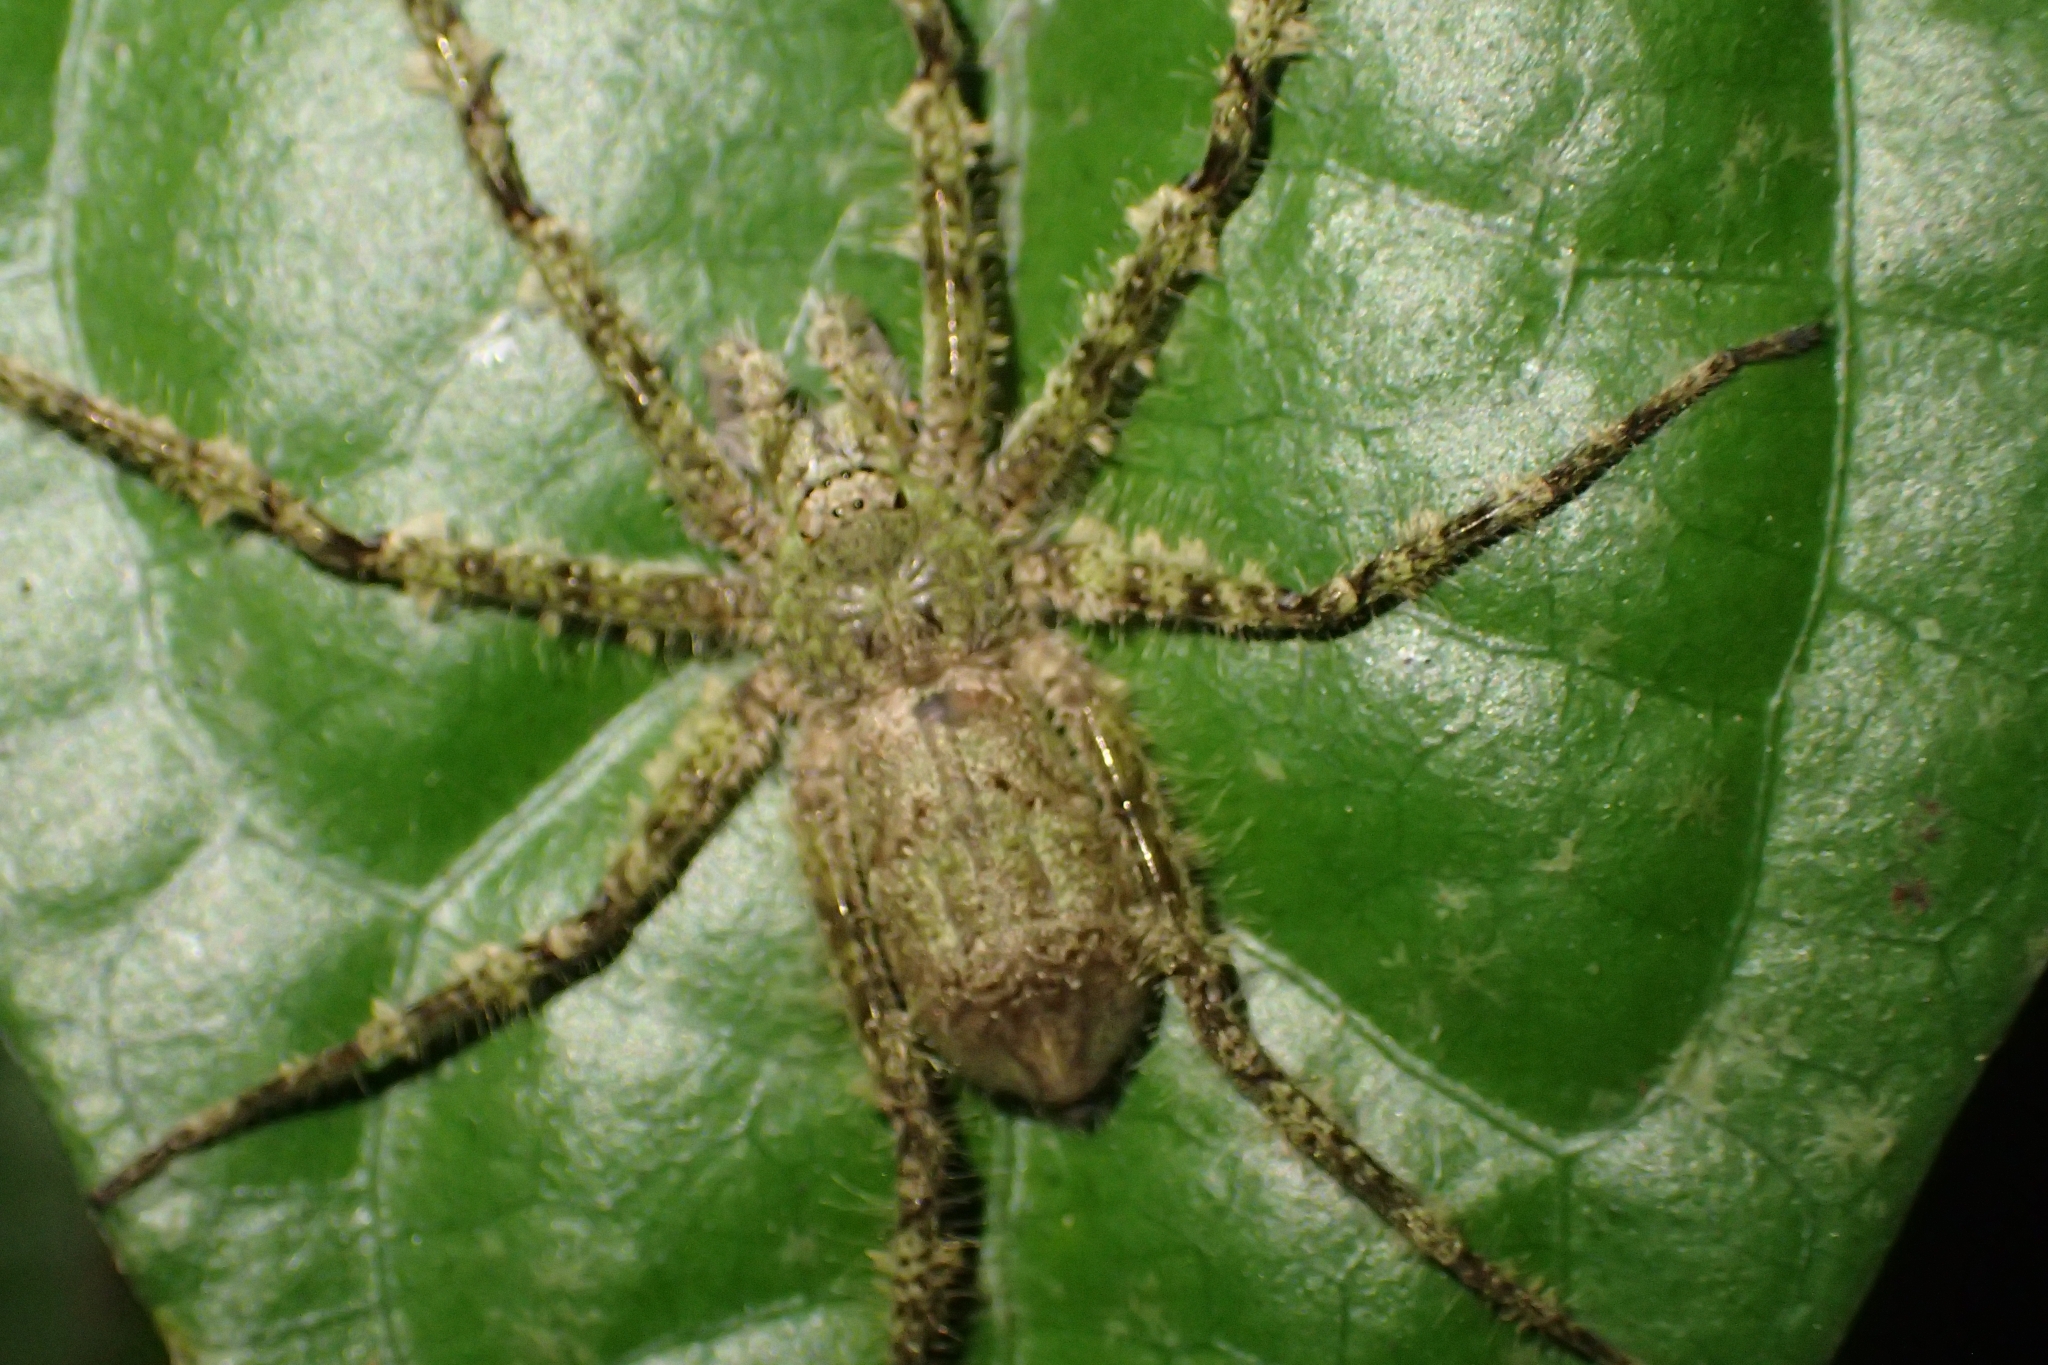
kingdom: Animalia
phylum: Arthropoda
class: Arachnida
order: Araneae
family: Sparassidae
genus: Pandercetes
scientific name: Pandercetes gracilis
